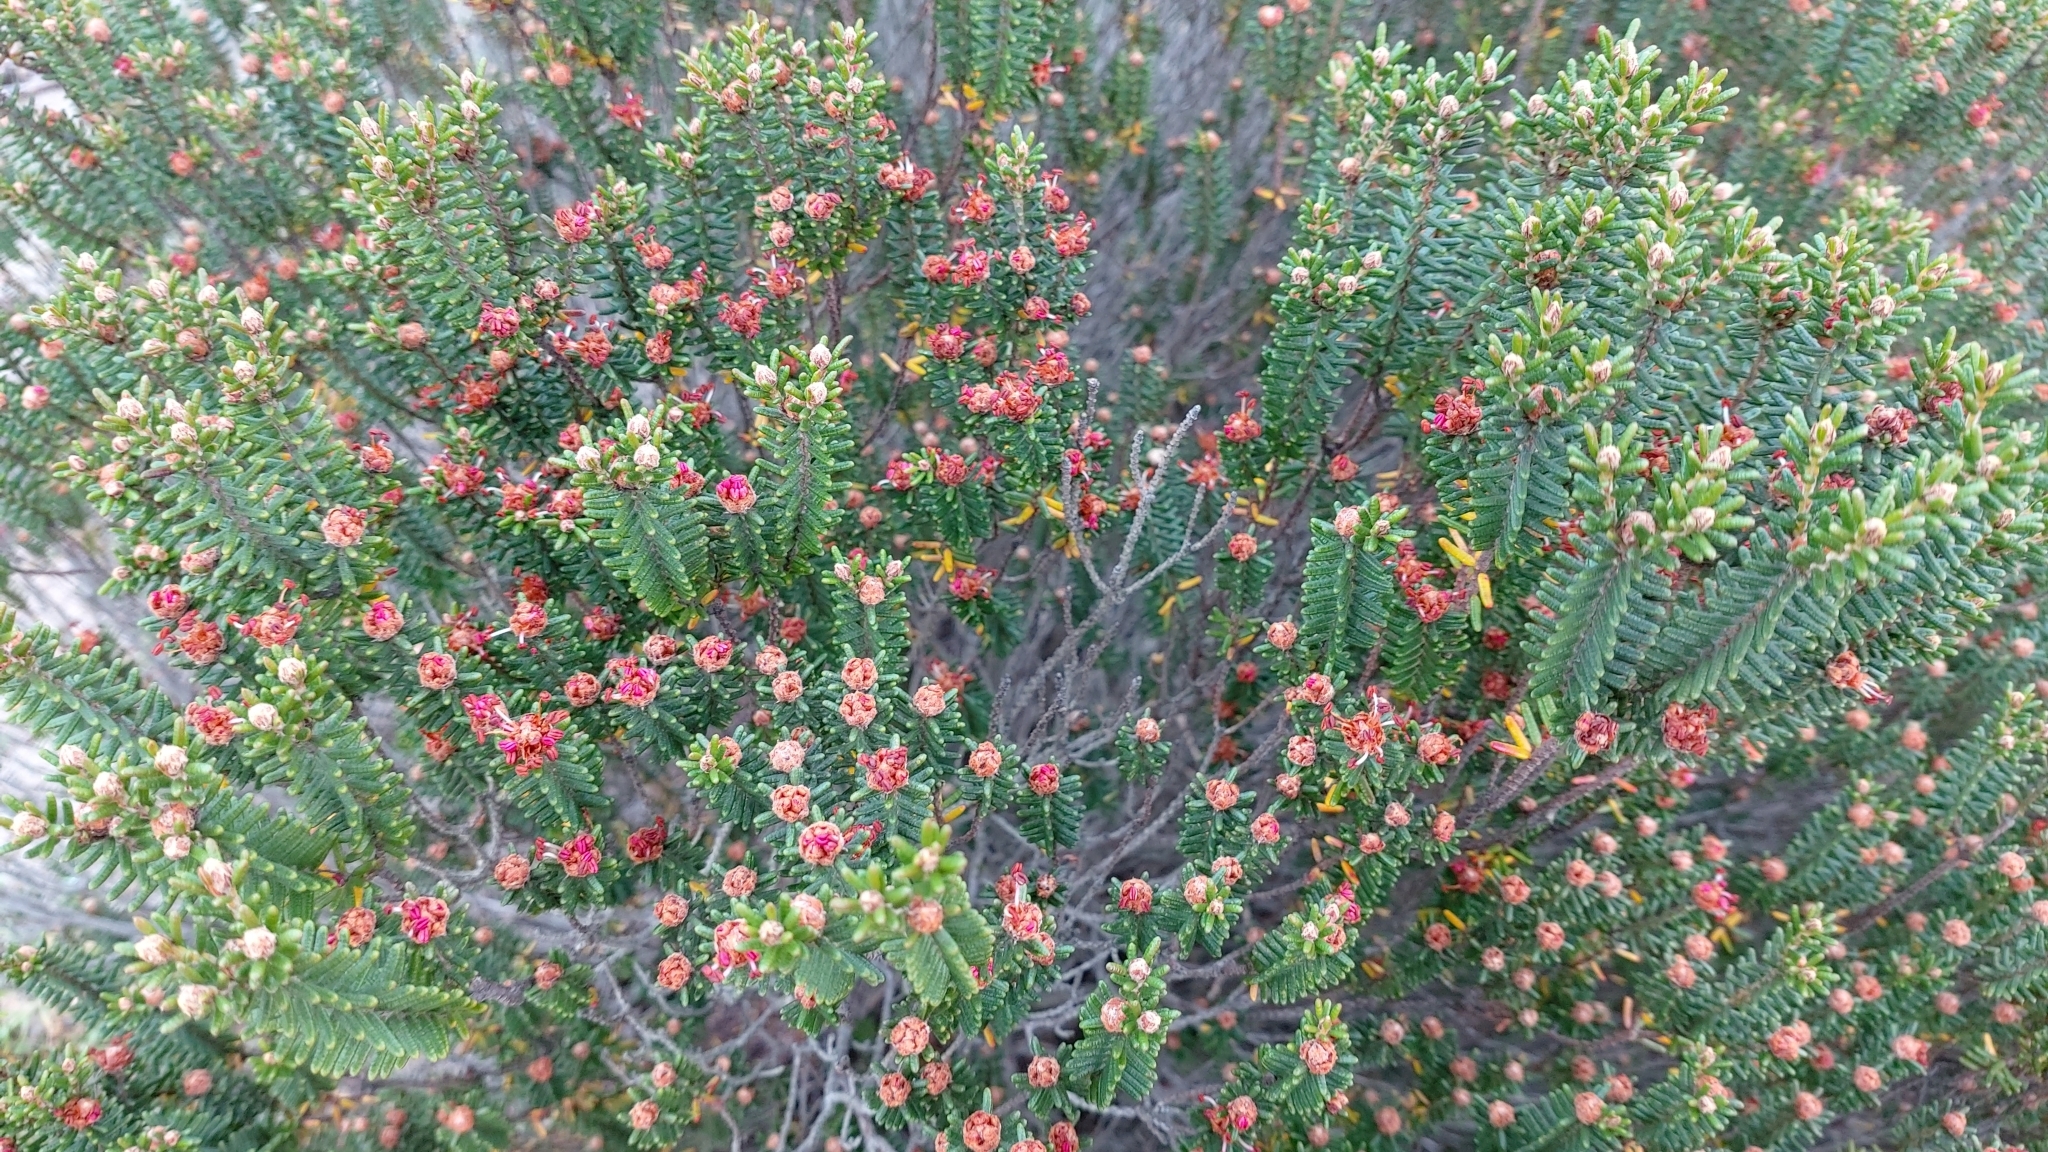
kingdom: Plantae
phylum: Tracheophyta
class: Magnoliopsida
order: Ericales
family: Ericaceae
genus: Corema
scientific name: Corema album
